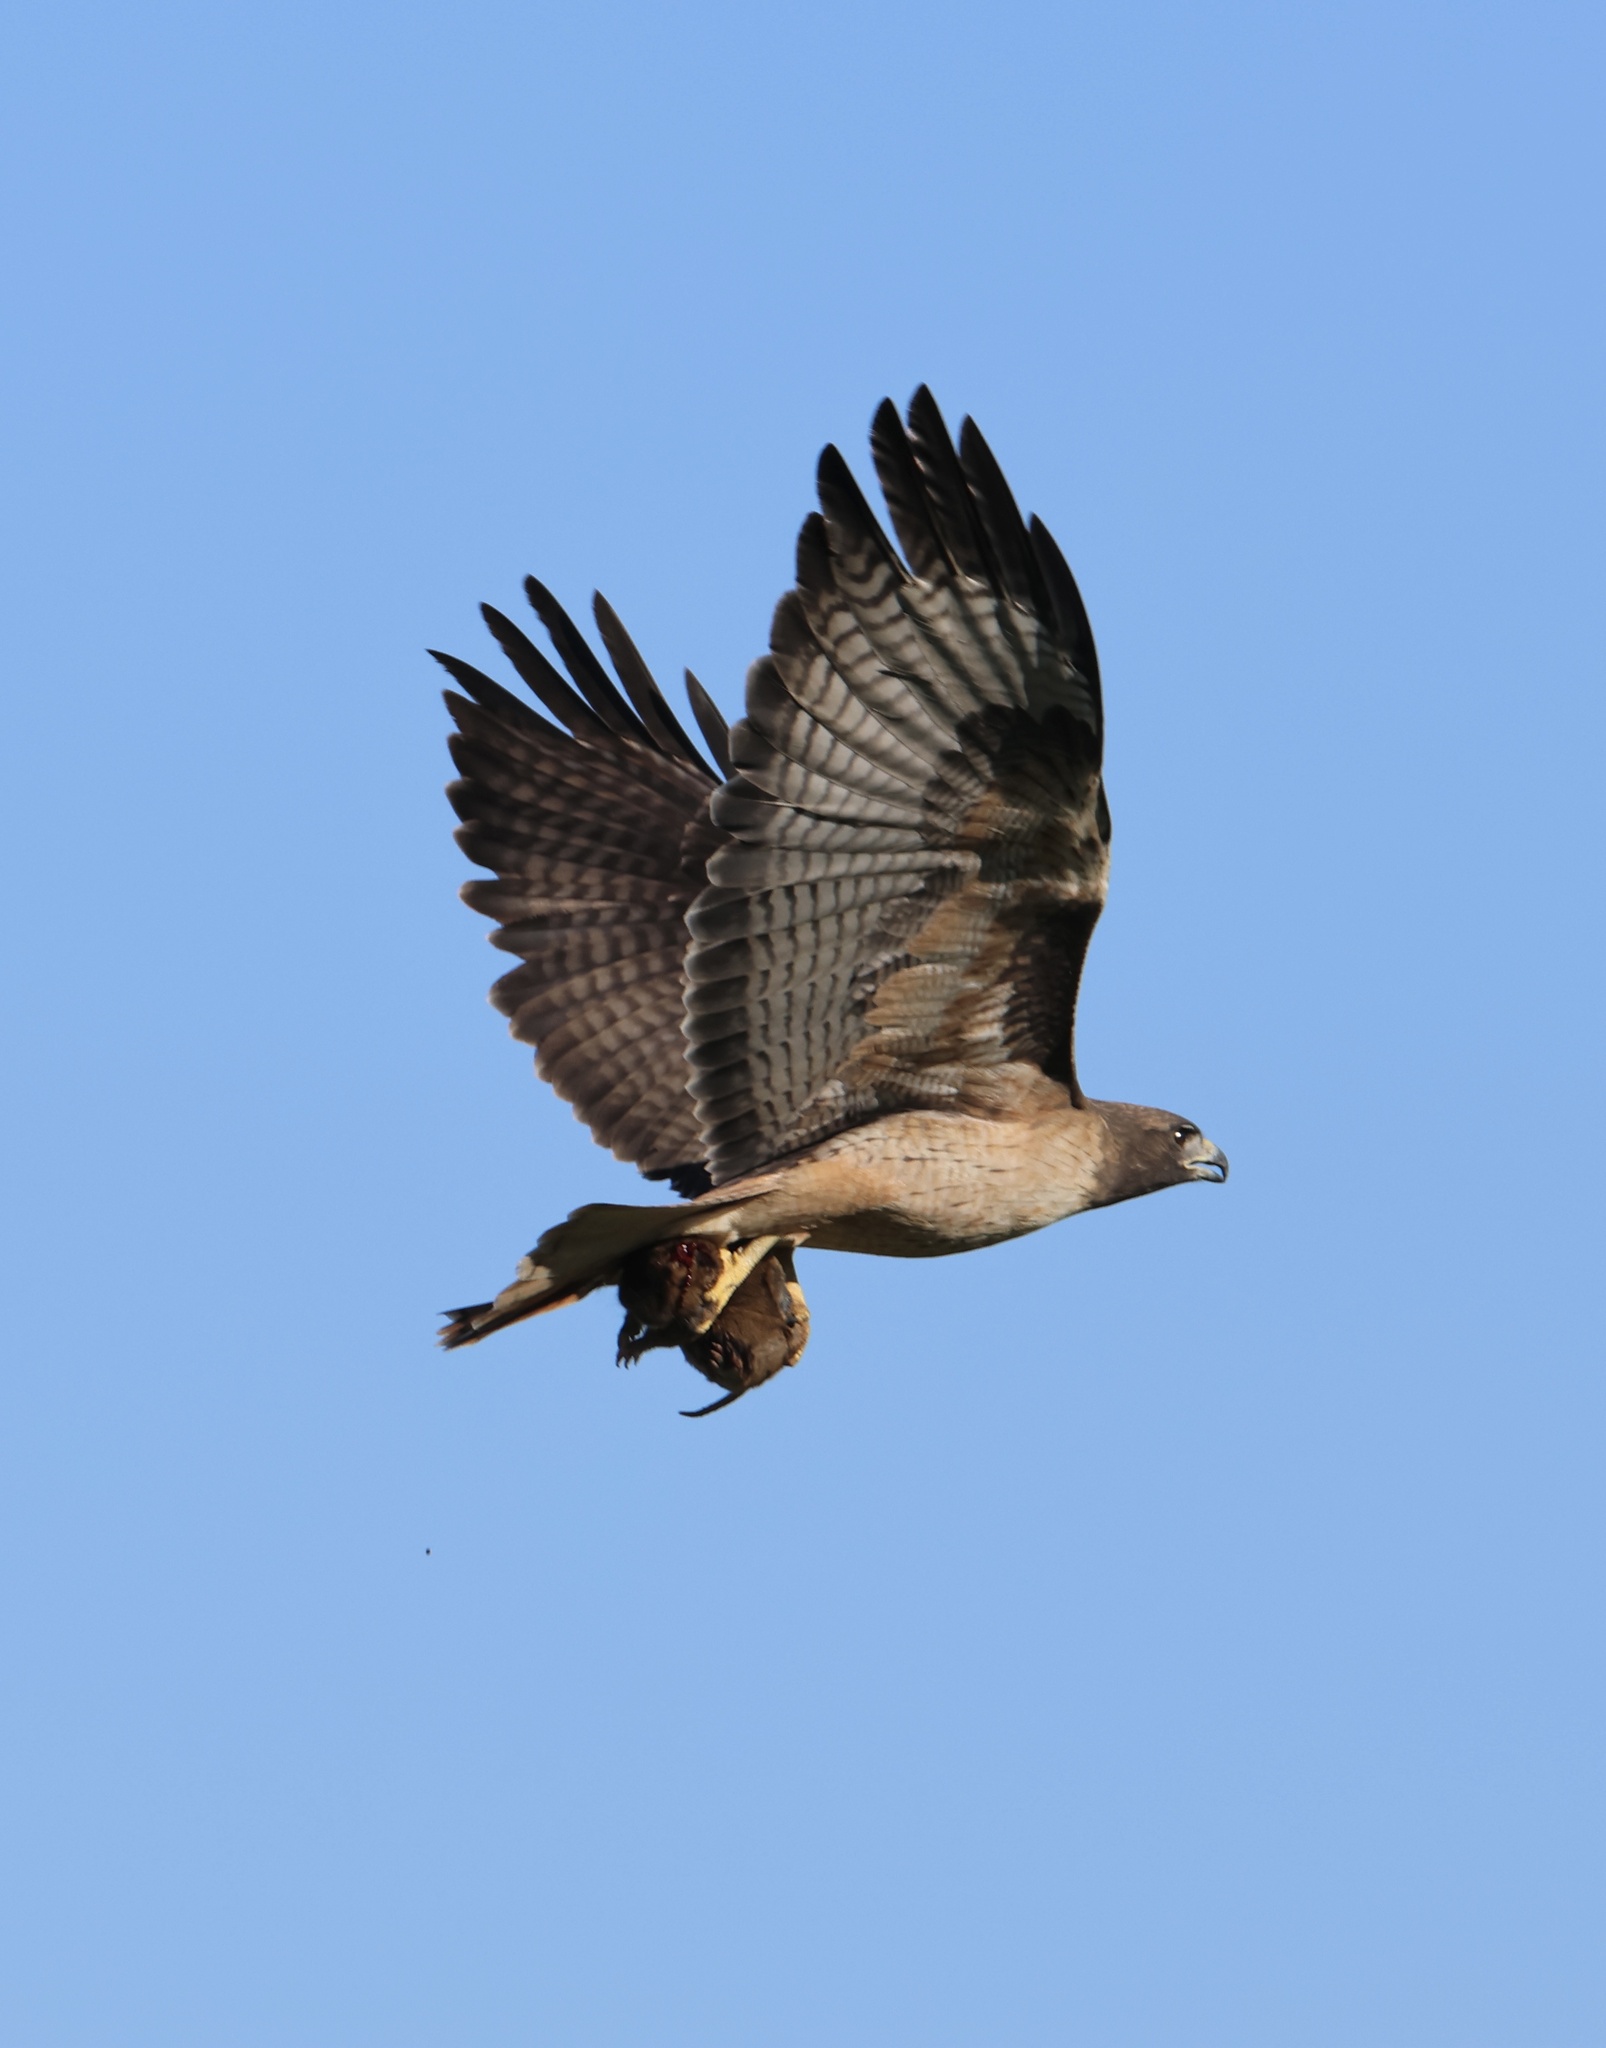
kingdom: Animalia
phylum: Chordata
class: Aves
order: Accipitriformes
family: Accipitridae
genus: Buteo
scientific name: Buteo jamaicensis
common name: Red-tailed hawk
